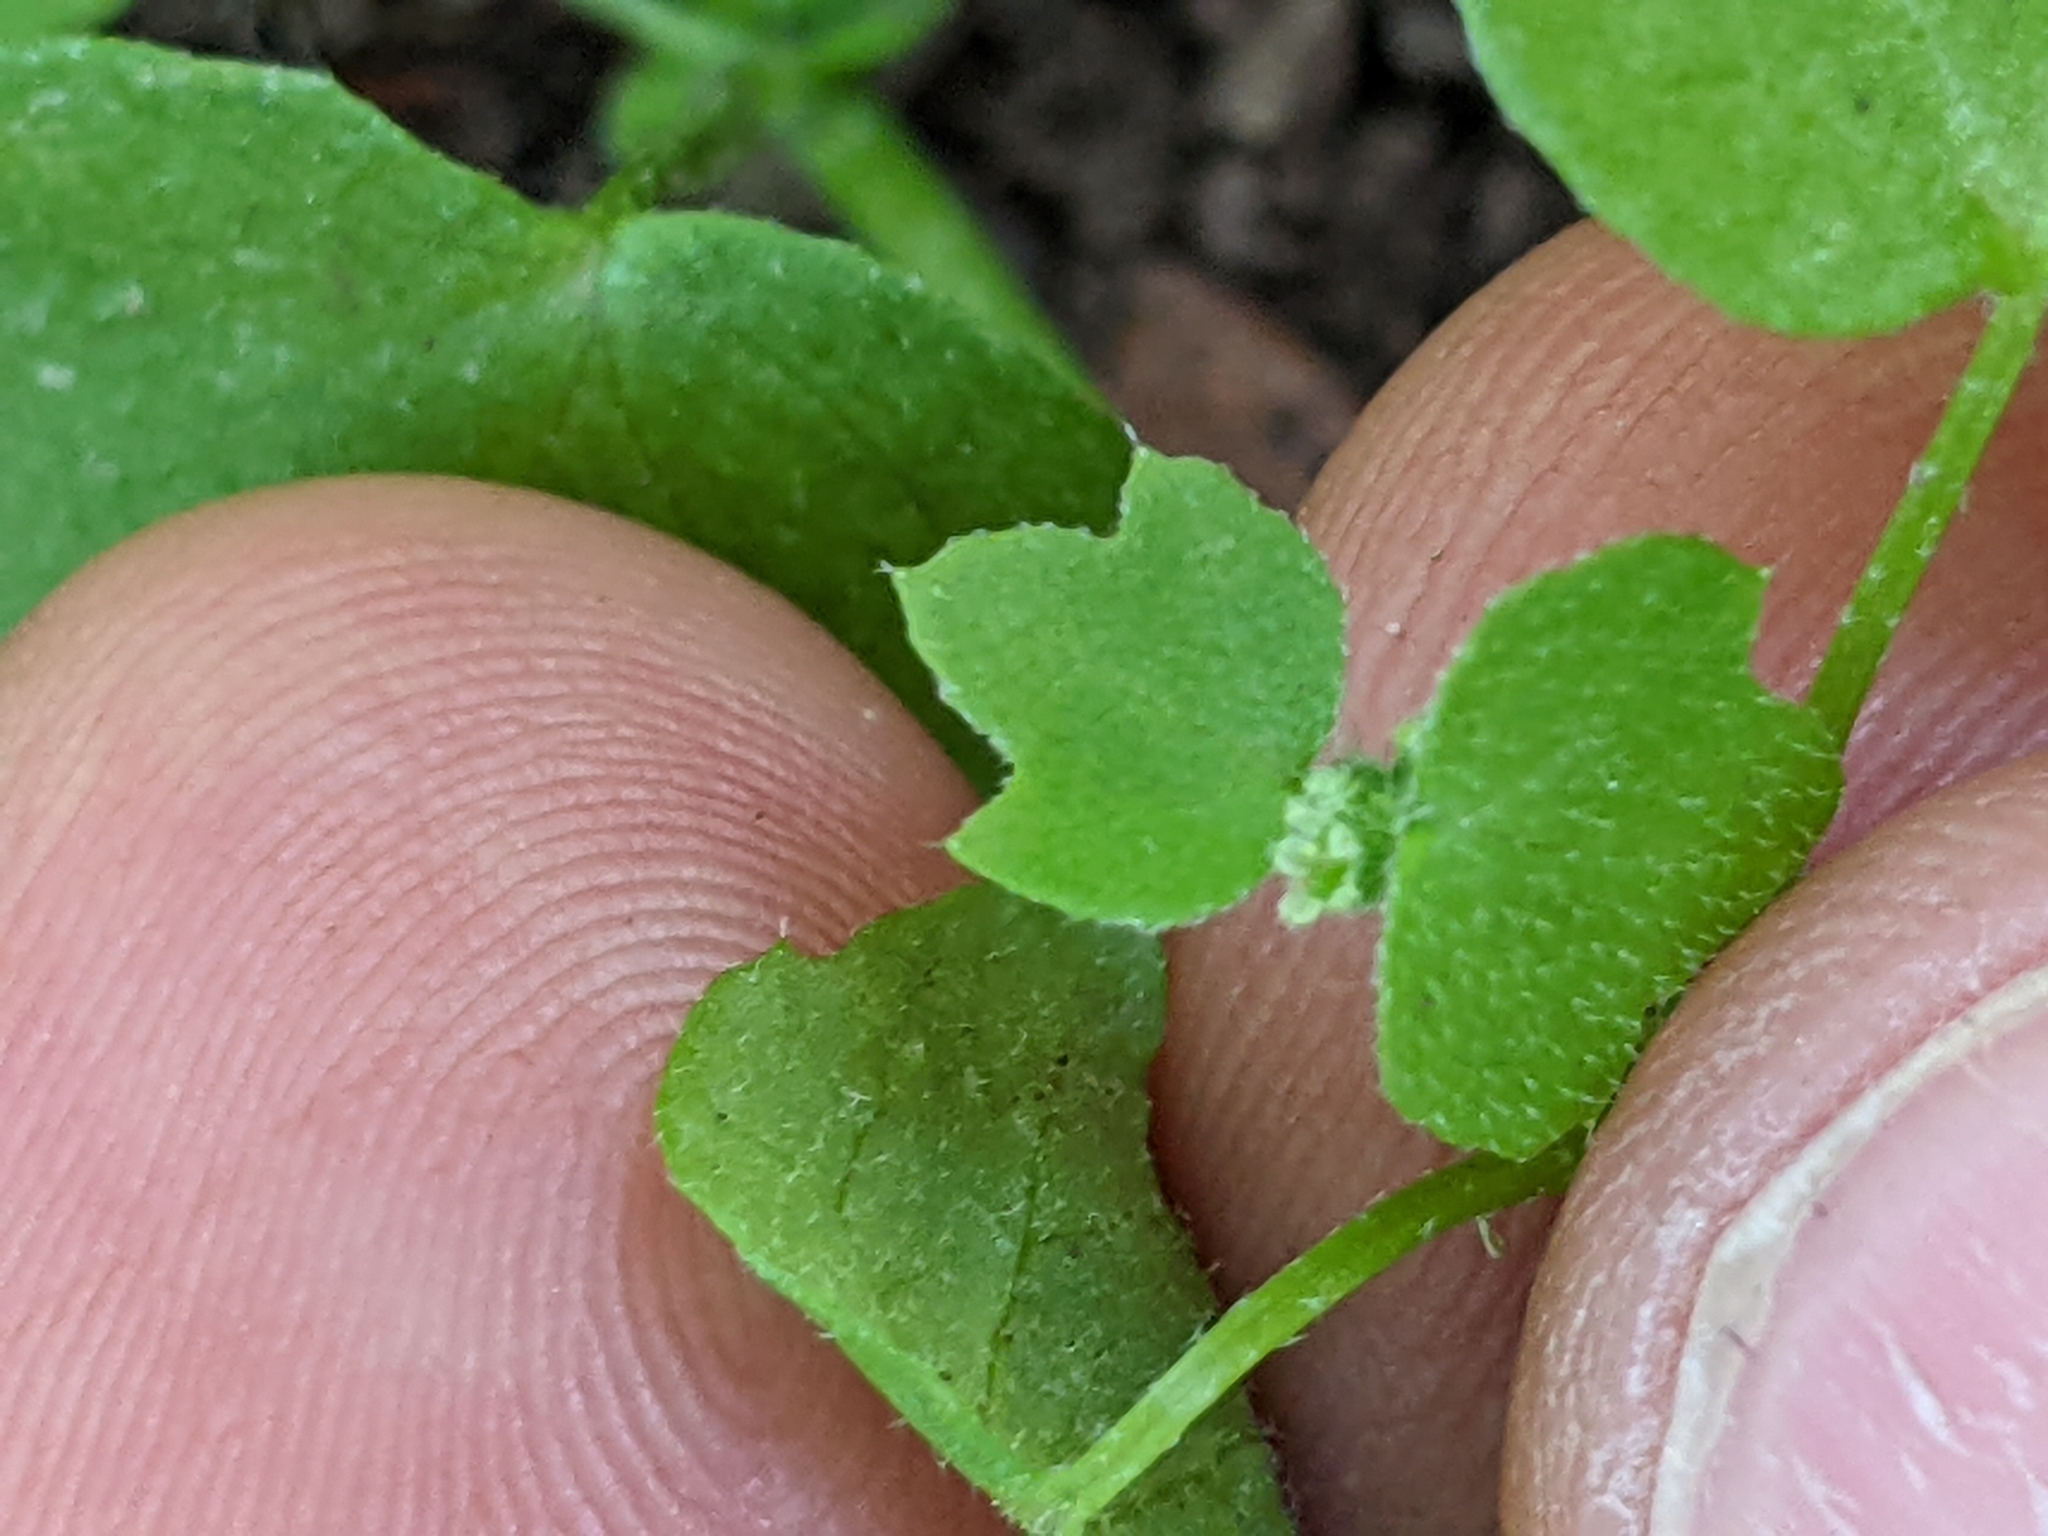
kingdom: Plantae
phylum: Tracheophyta
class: Magnoliopsida
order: Apiales
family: Apiaceae
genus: Bowlesia
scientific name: Bowlesia incana
